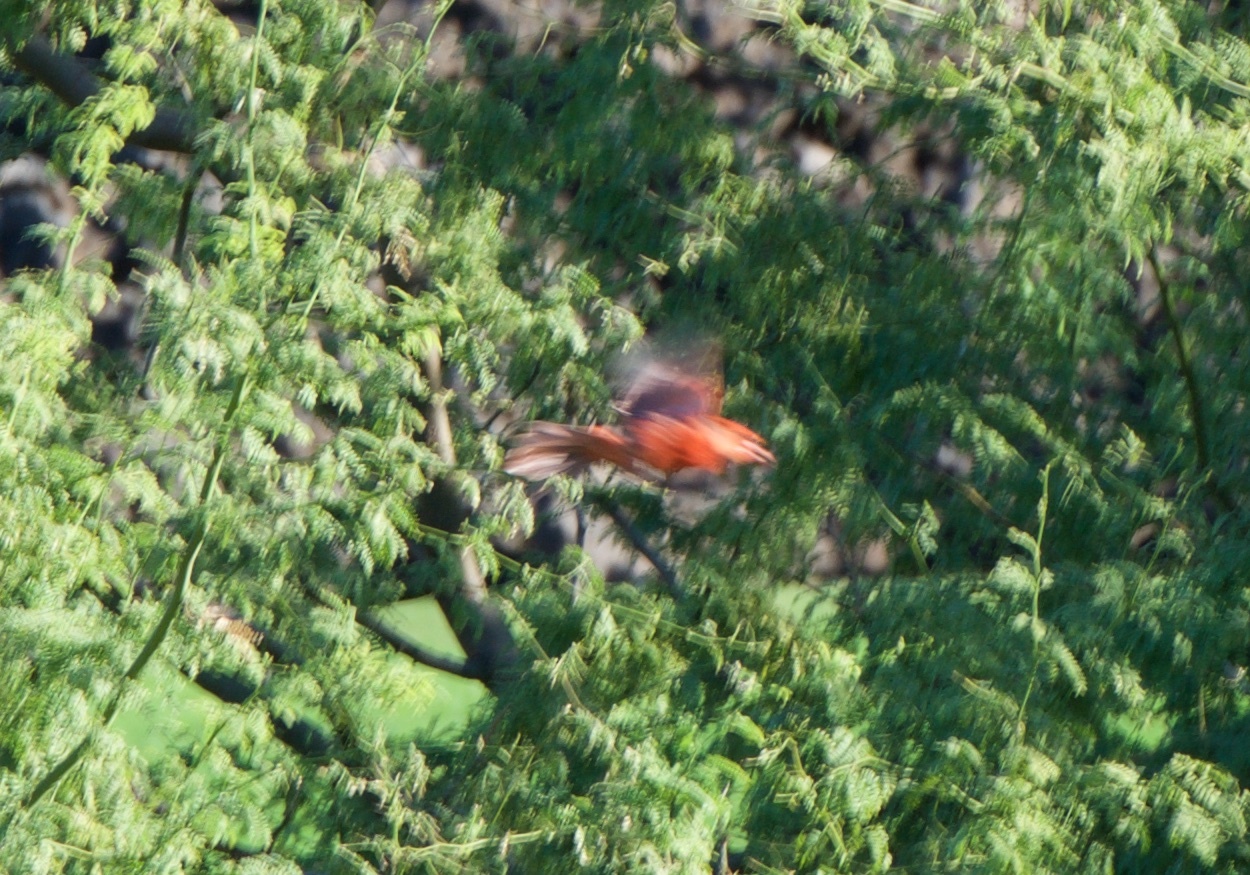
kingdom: Animalia
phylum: Chordata
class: Aves
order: Passeriformes
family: Cardinalidae
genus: Cardinalis
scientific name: Cardinalis cardinalis
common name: Northern cardinal
